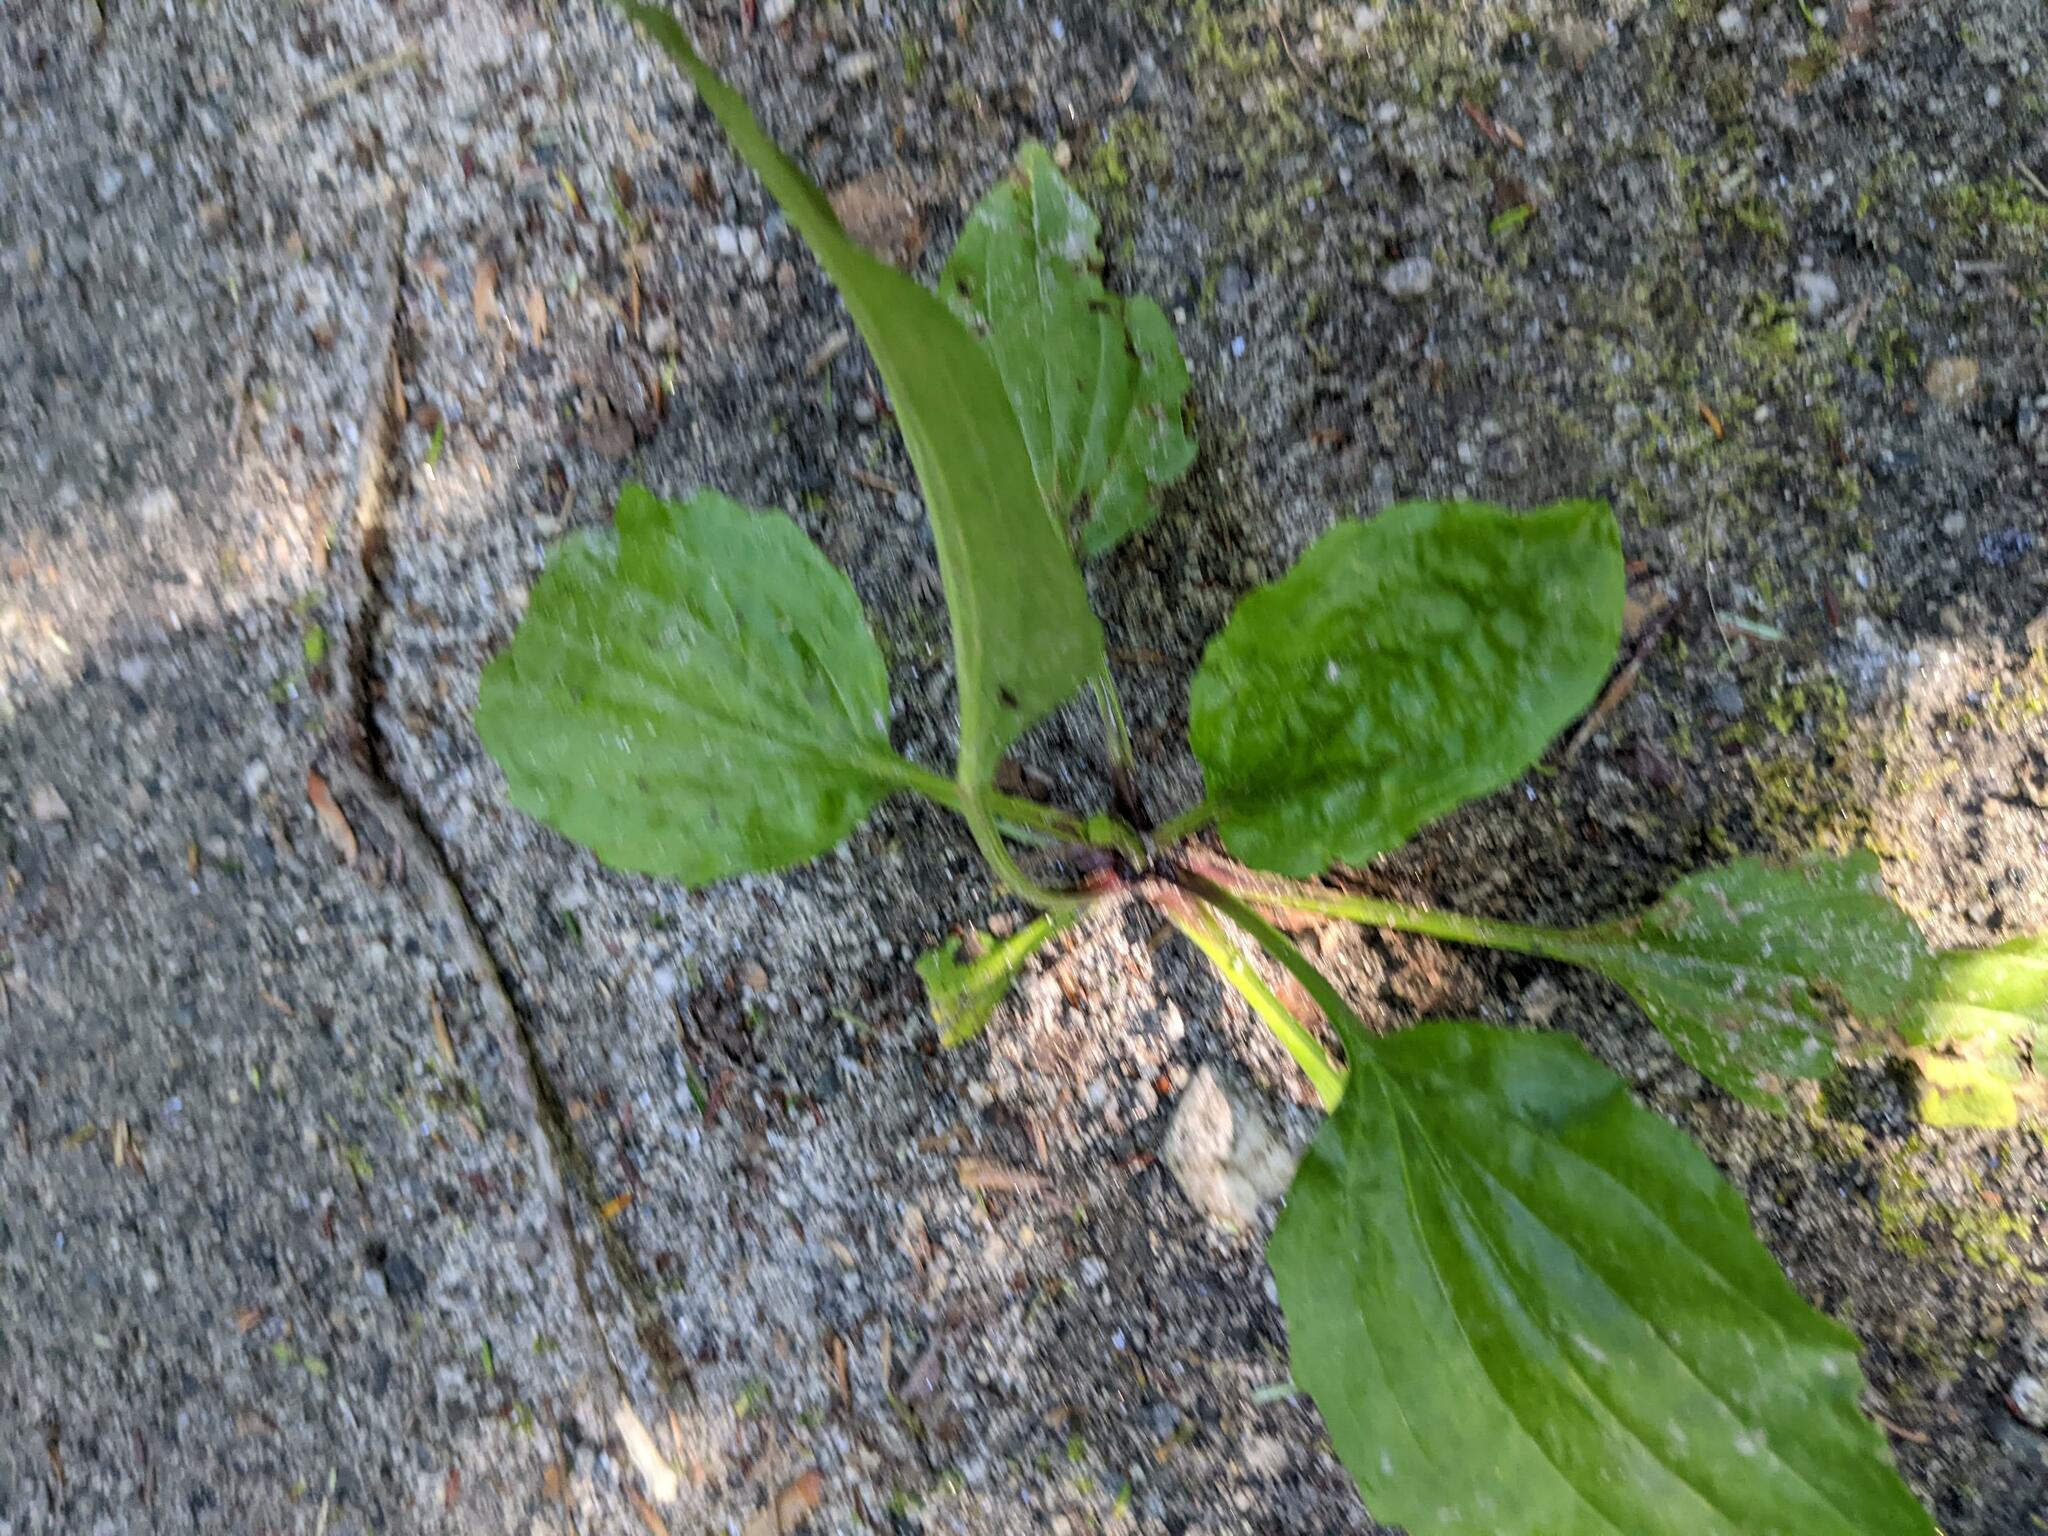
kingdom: Plantae
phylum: Tracheophyta
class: Magnoliopsida
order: Lamiales
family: Plantaginaceae
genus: Plantago
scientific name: Plantago rugelii
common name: American plantain
